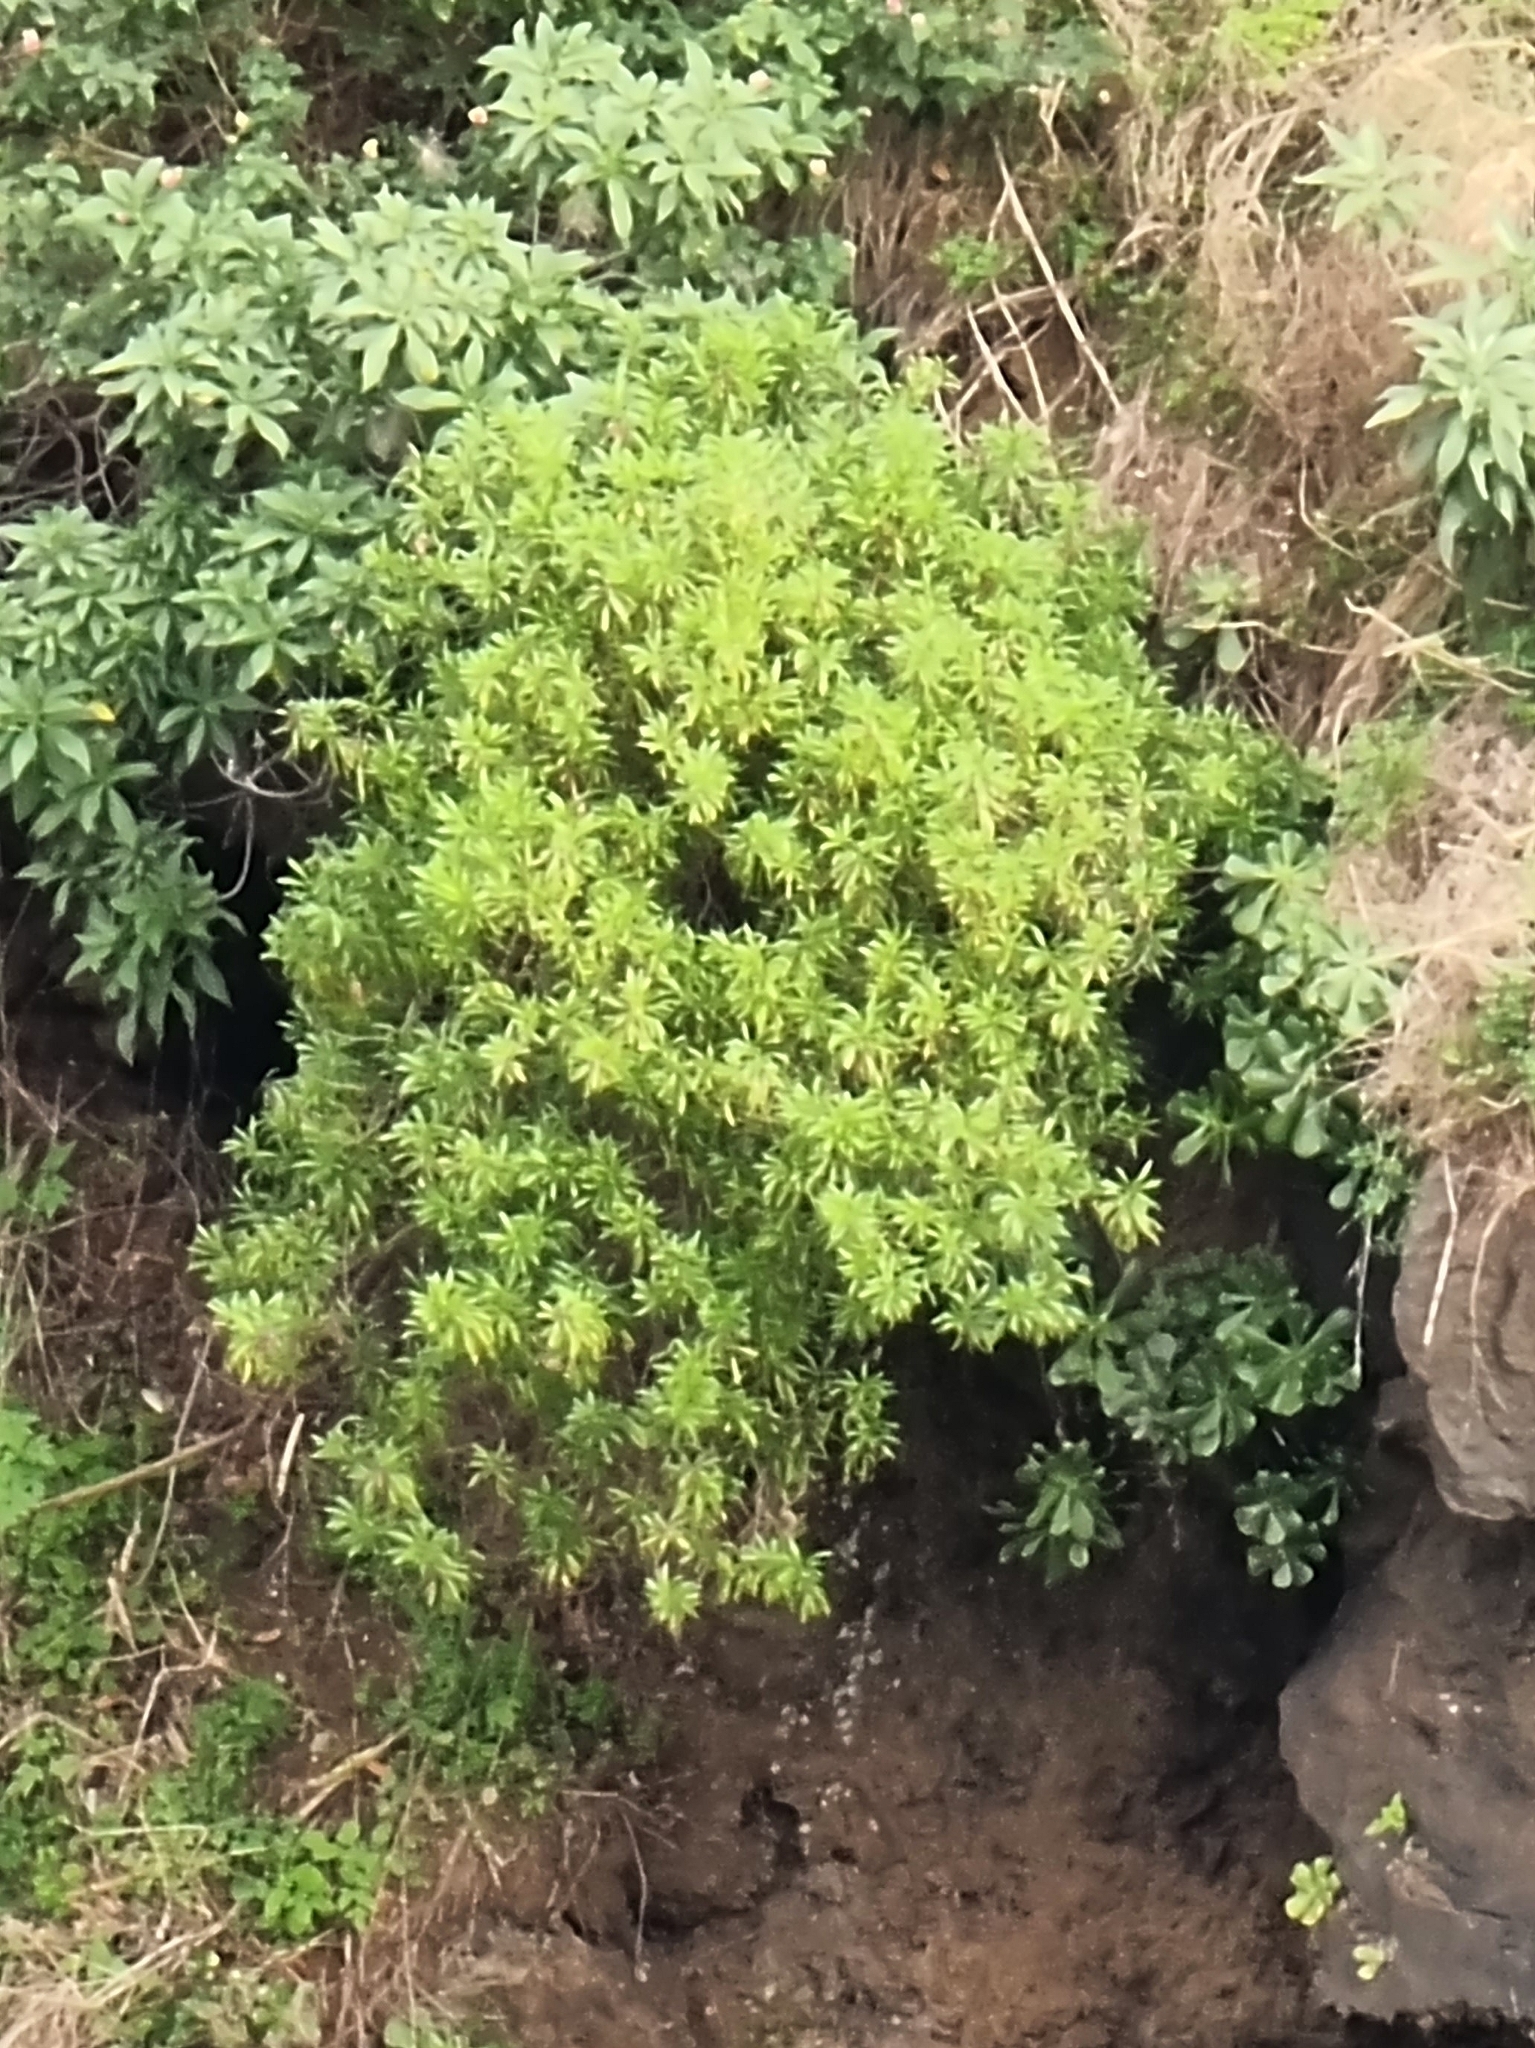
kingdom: Plantae
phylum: Tracheophyta
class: Magnoliopsida
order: Lamiales
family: Plantaginaceae
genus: Globularia
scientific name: Globularia salicina
